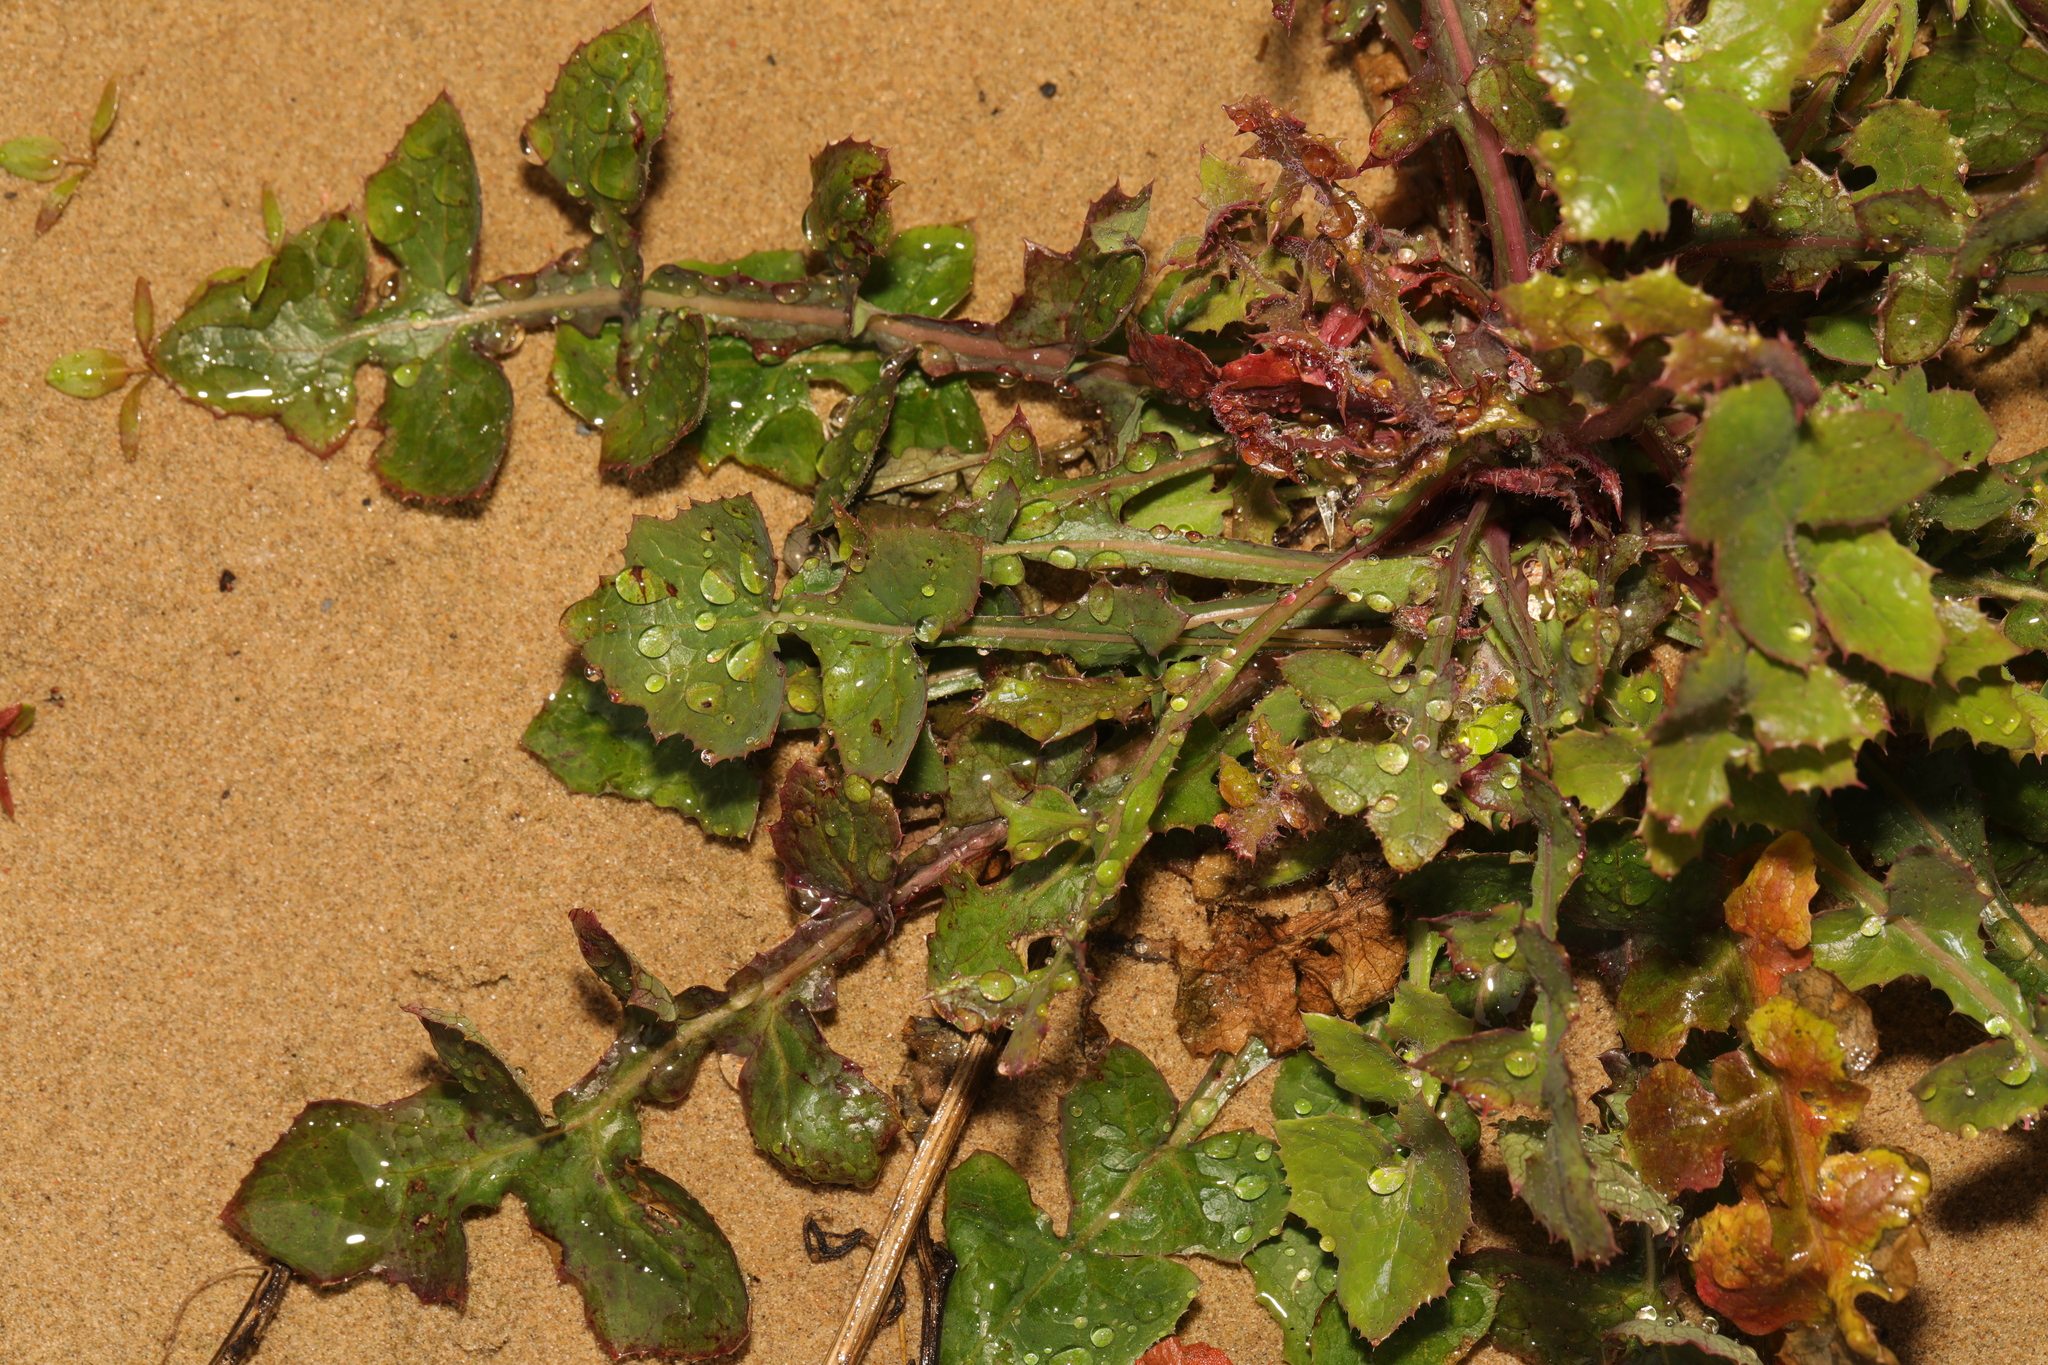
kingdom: Plantae
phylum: Tracheophyta
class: Magnoliopsida
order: Asterales
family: Asteraceae
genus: Sonchus
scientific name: Sonchus oleraceus
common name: Common sowthistle
